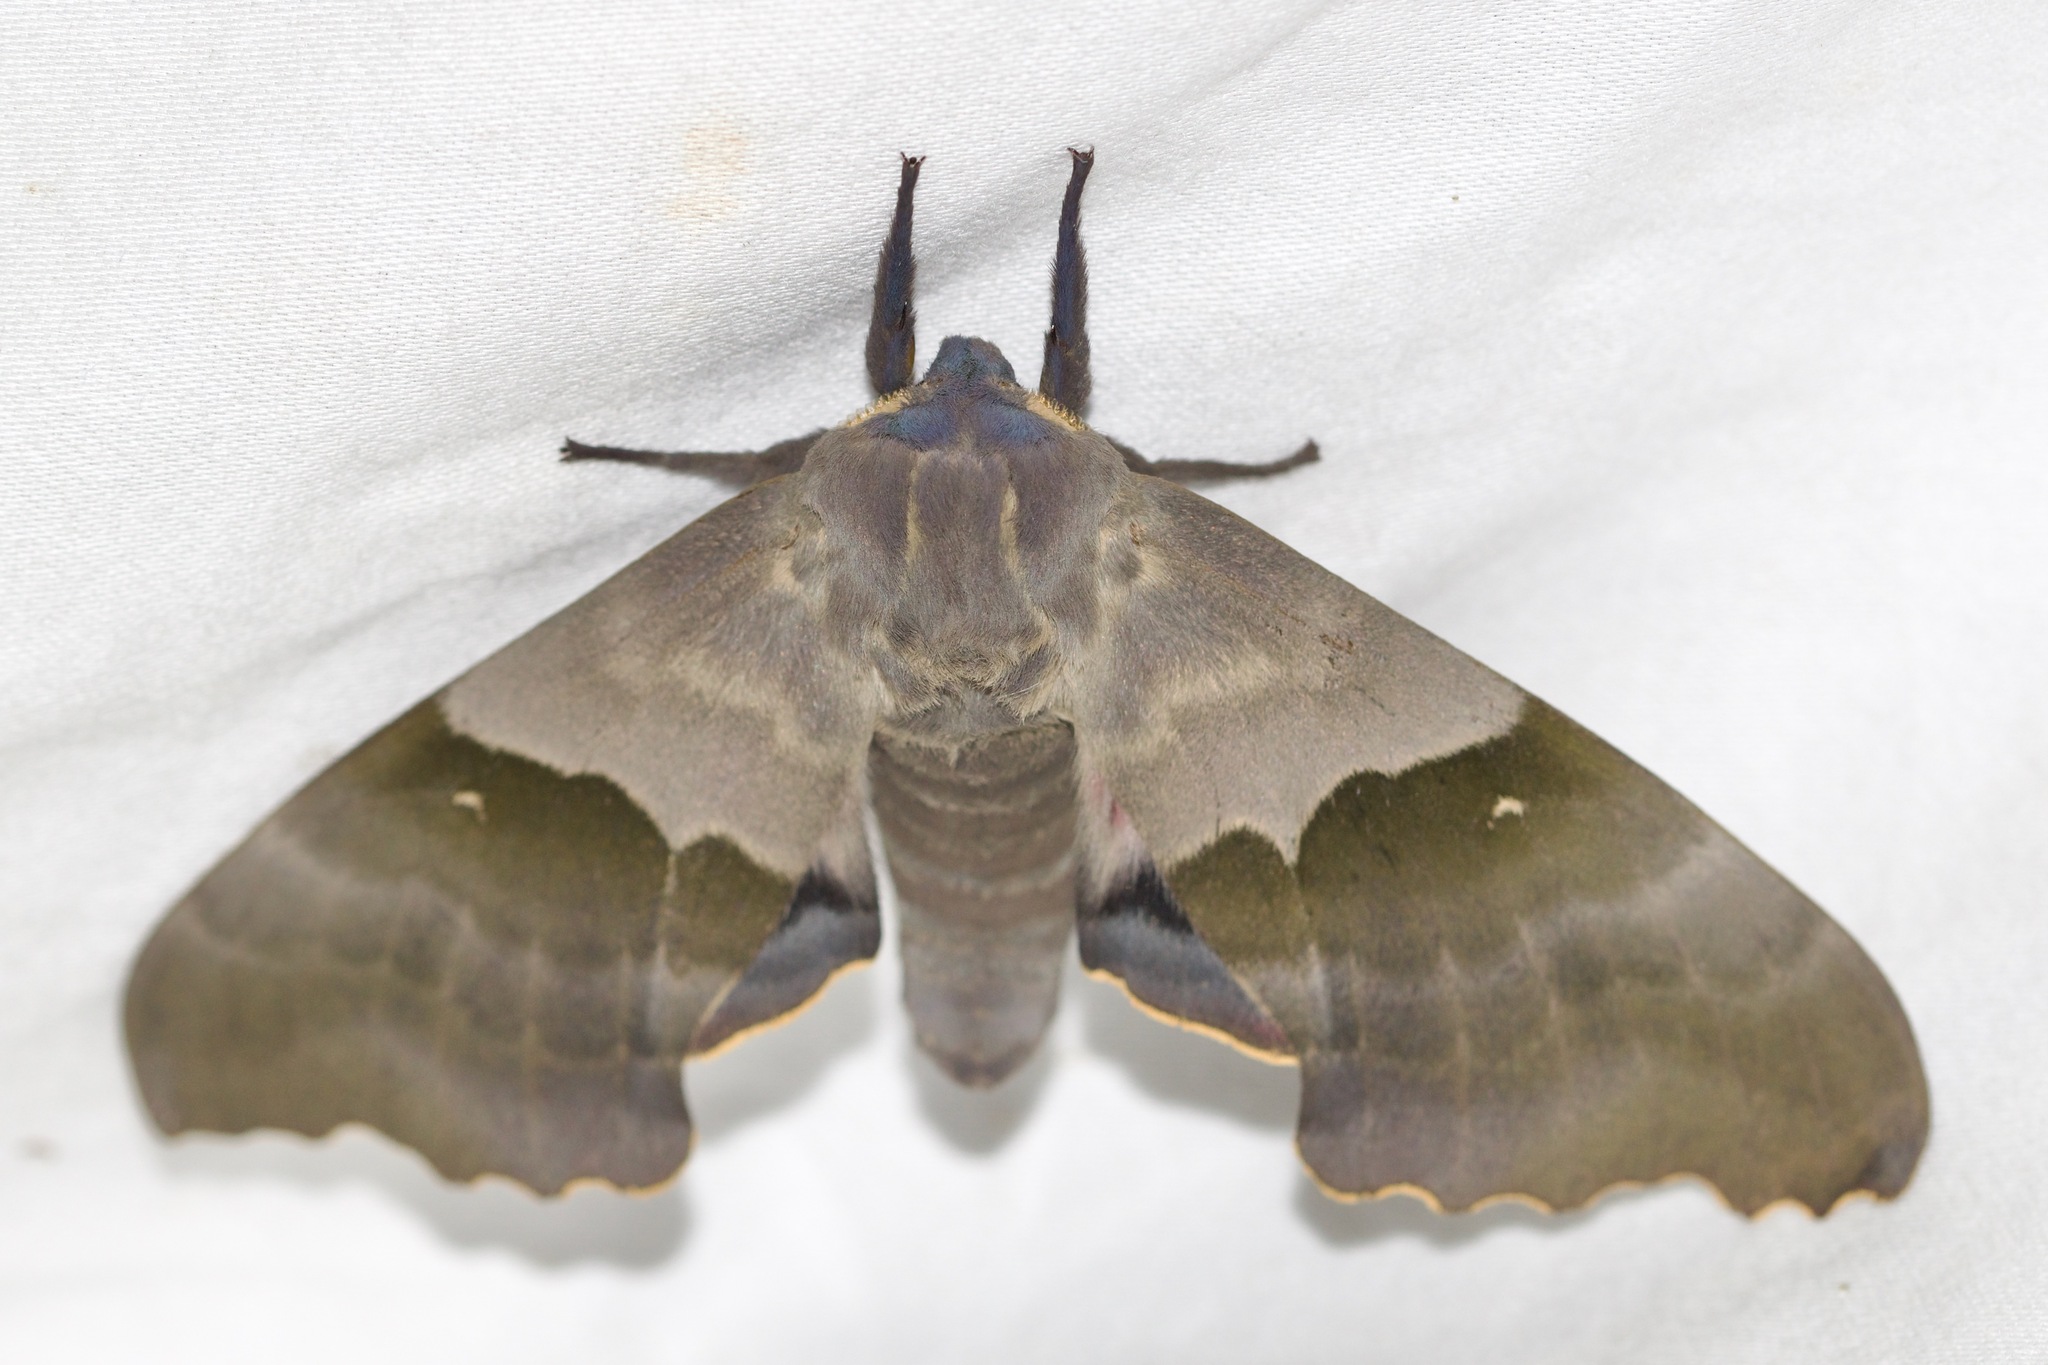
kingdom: Animalia
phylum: Arthropoda
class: Insecta
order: Lepidoptera
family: Sphingidae
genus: Pachysphinx
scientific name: Pachysphinx modesta
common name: Big poplar sphinx
